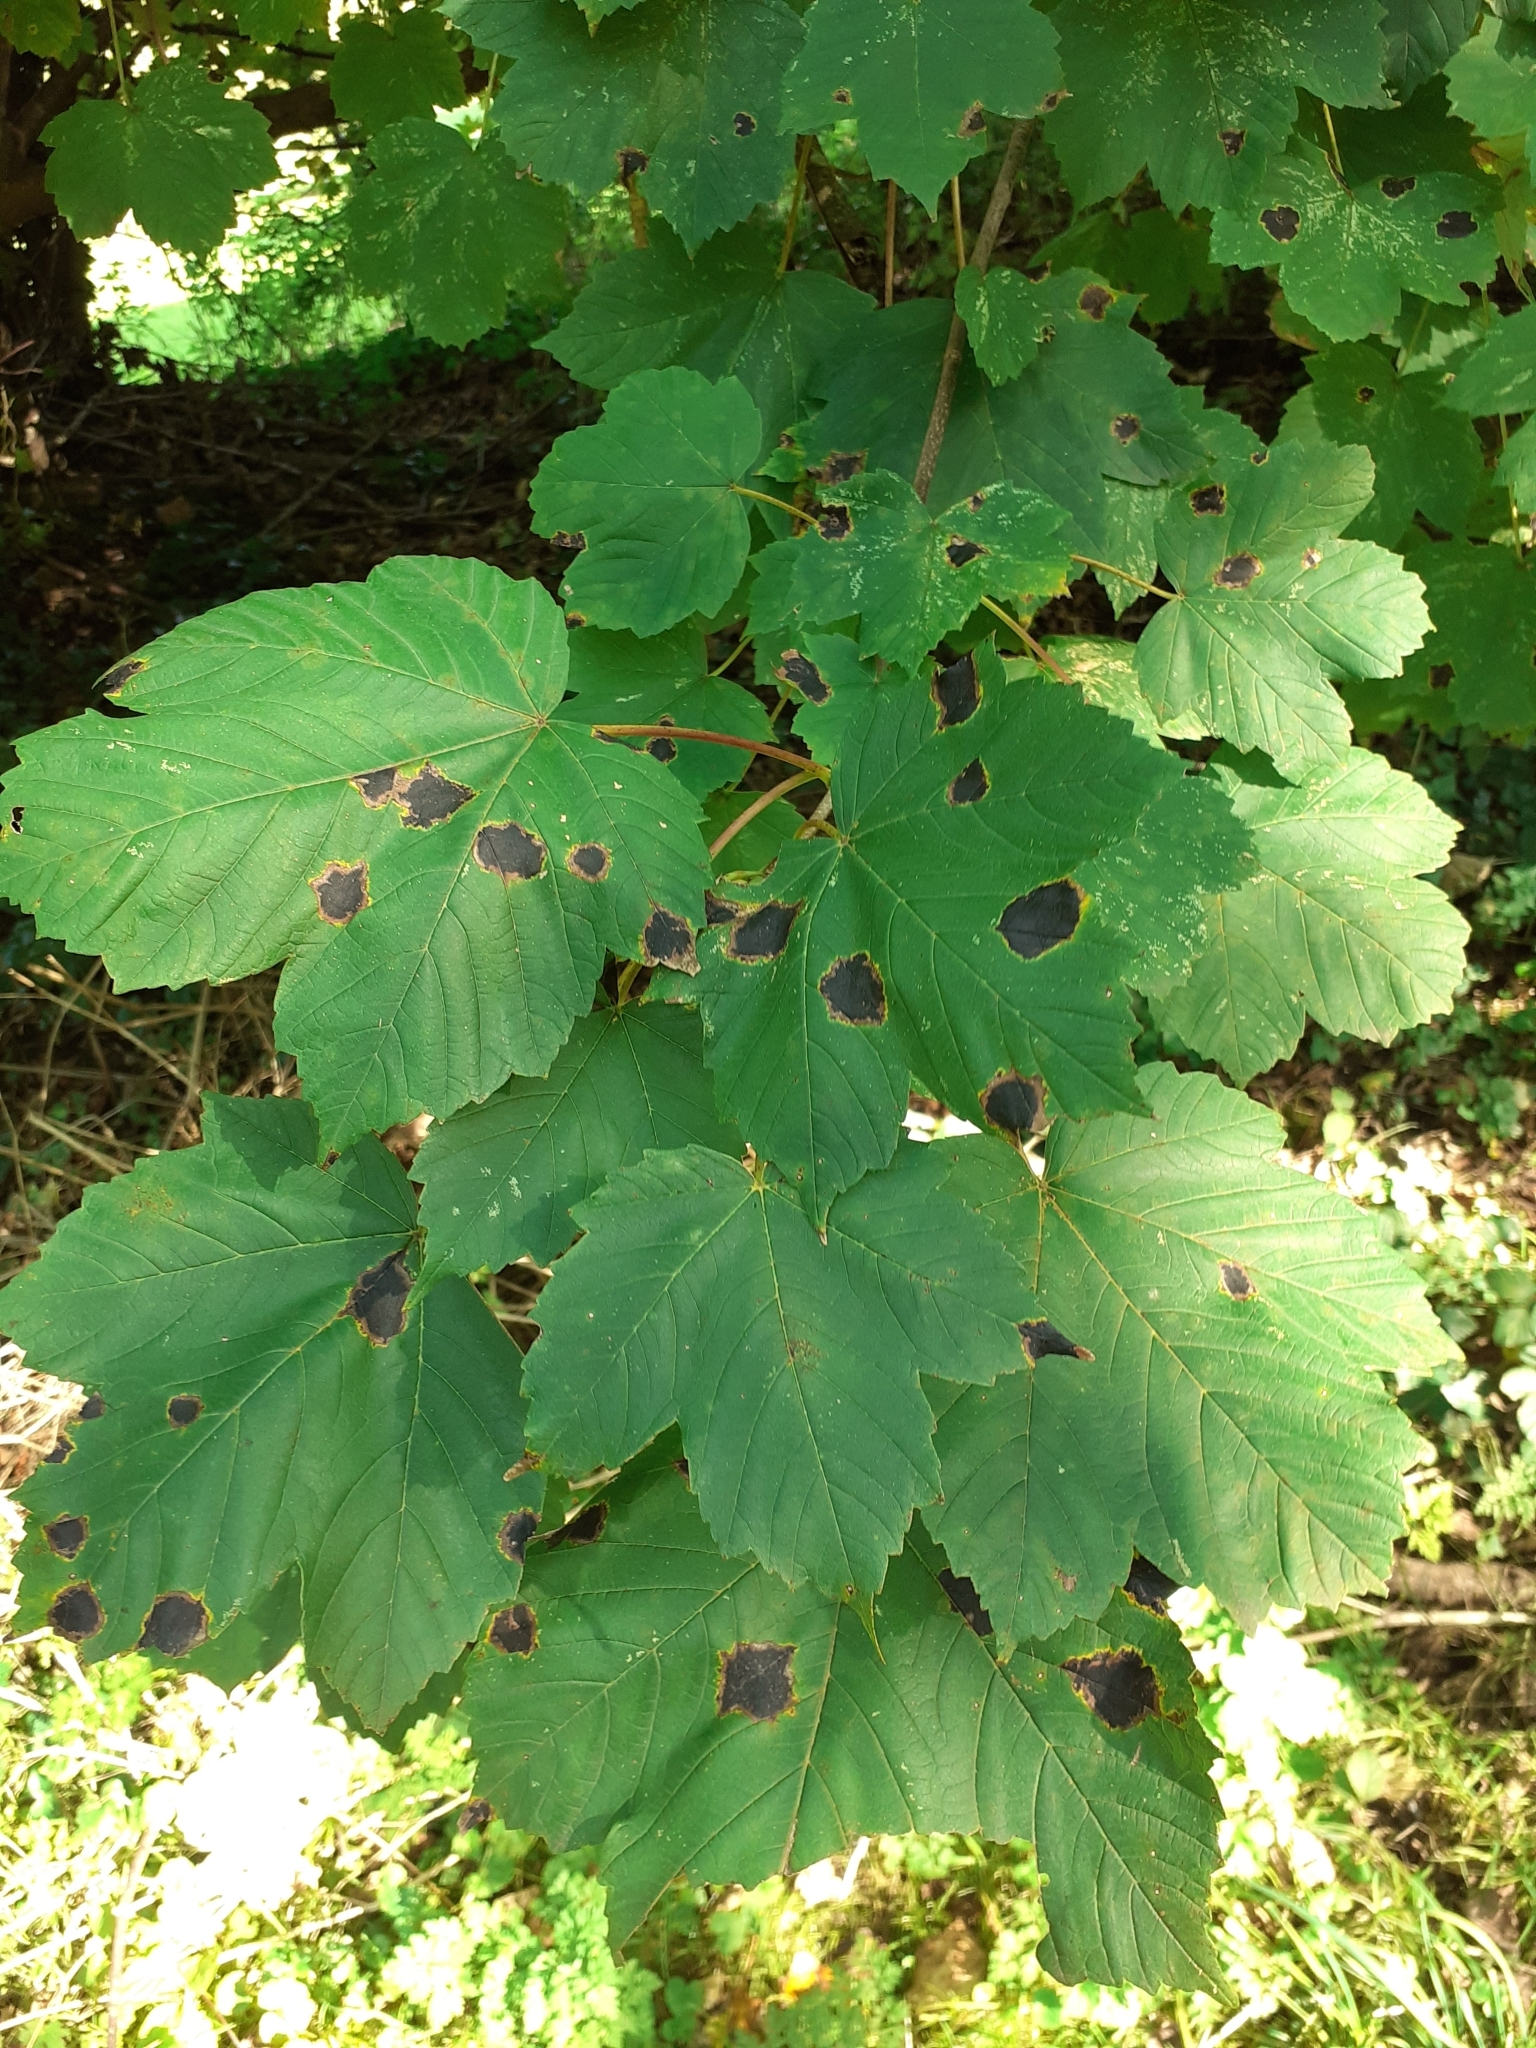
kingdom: Fungi
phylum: Ascomycota
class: Leotiomycetes
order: Rhytismatales
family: Rhytismataceae
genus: Rhytisma
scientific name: Rhytisma acerinum
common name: European tar spot
